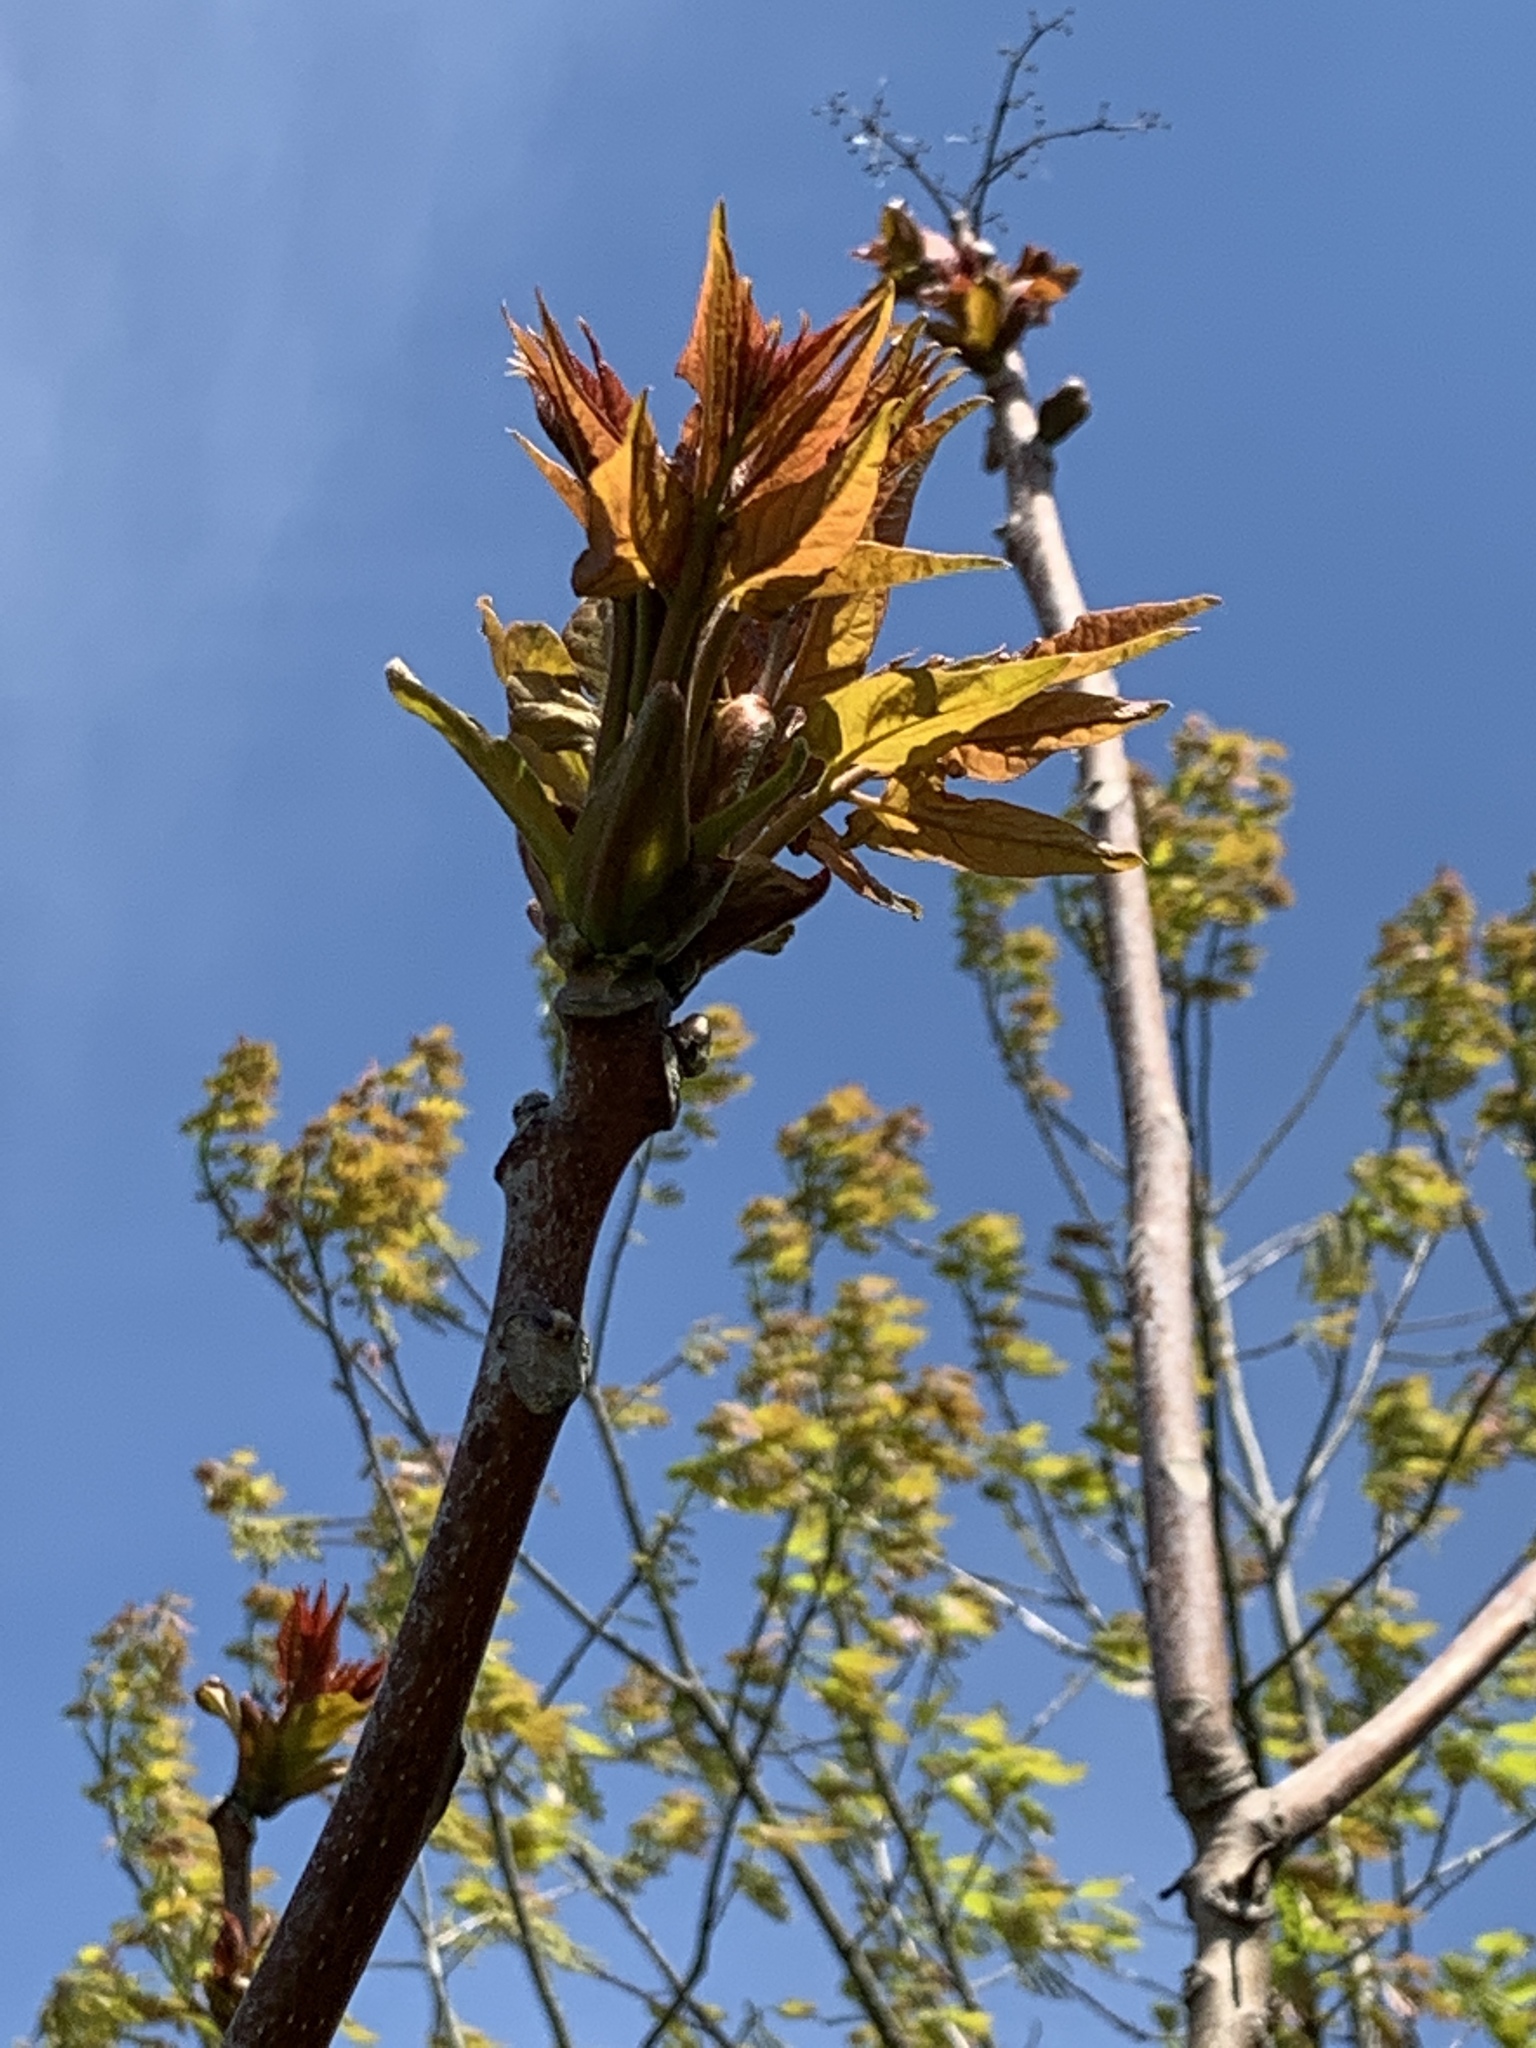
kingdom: Plantae
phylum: Tracheophyta
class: Magnoliopsida
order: Sapindales
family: Simaroubaceae
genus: Ailanthus
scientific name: Ailanthus altissima
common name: Tree-of-heaven
